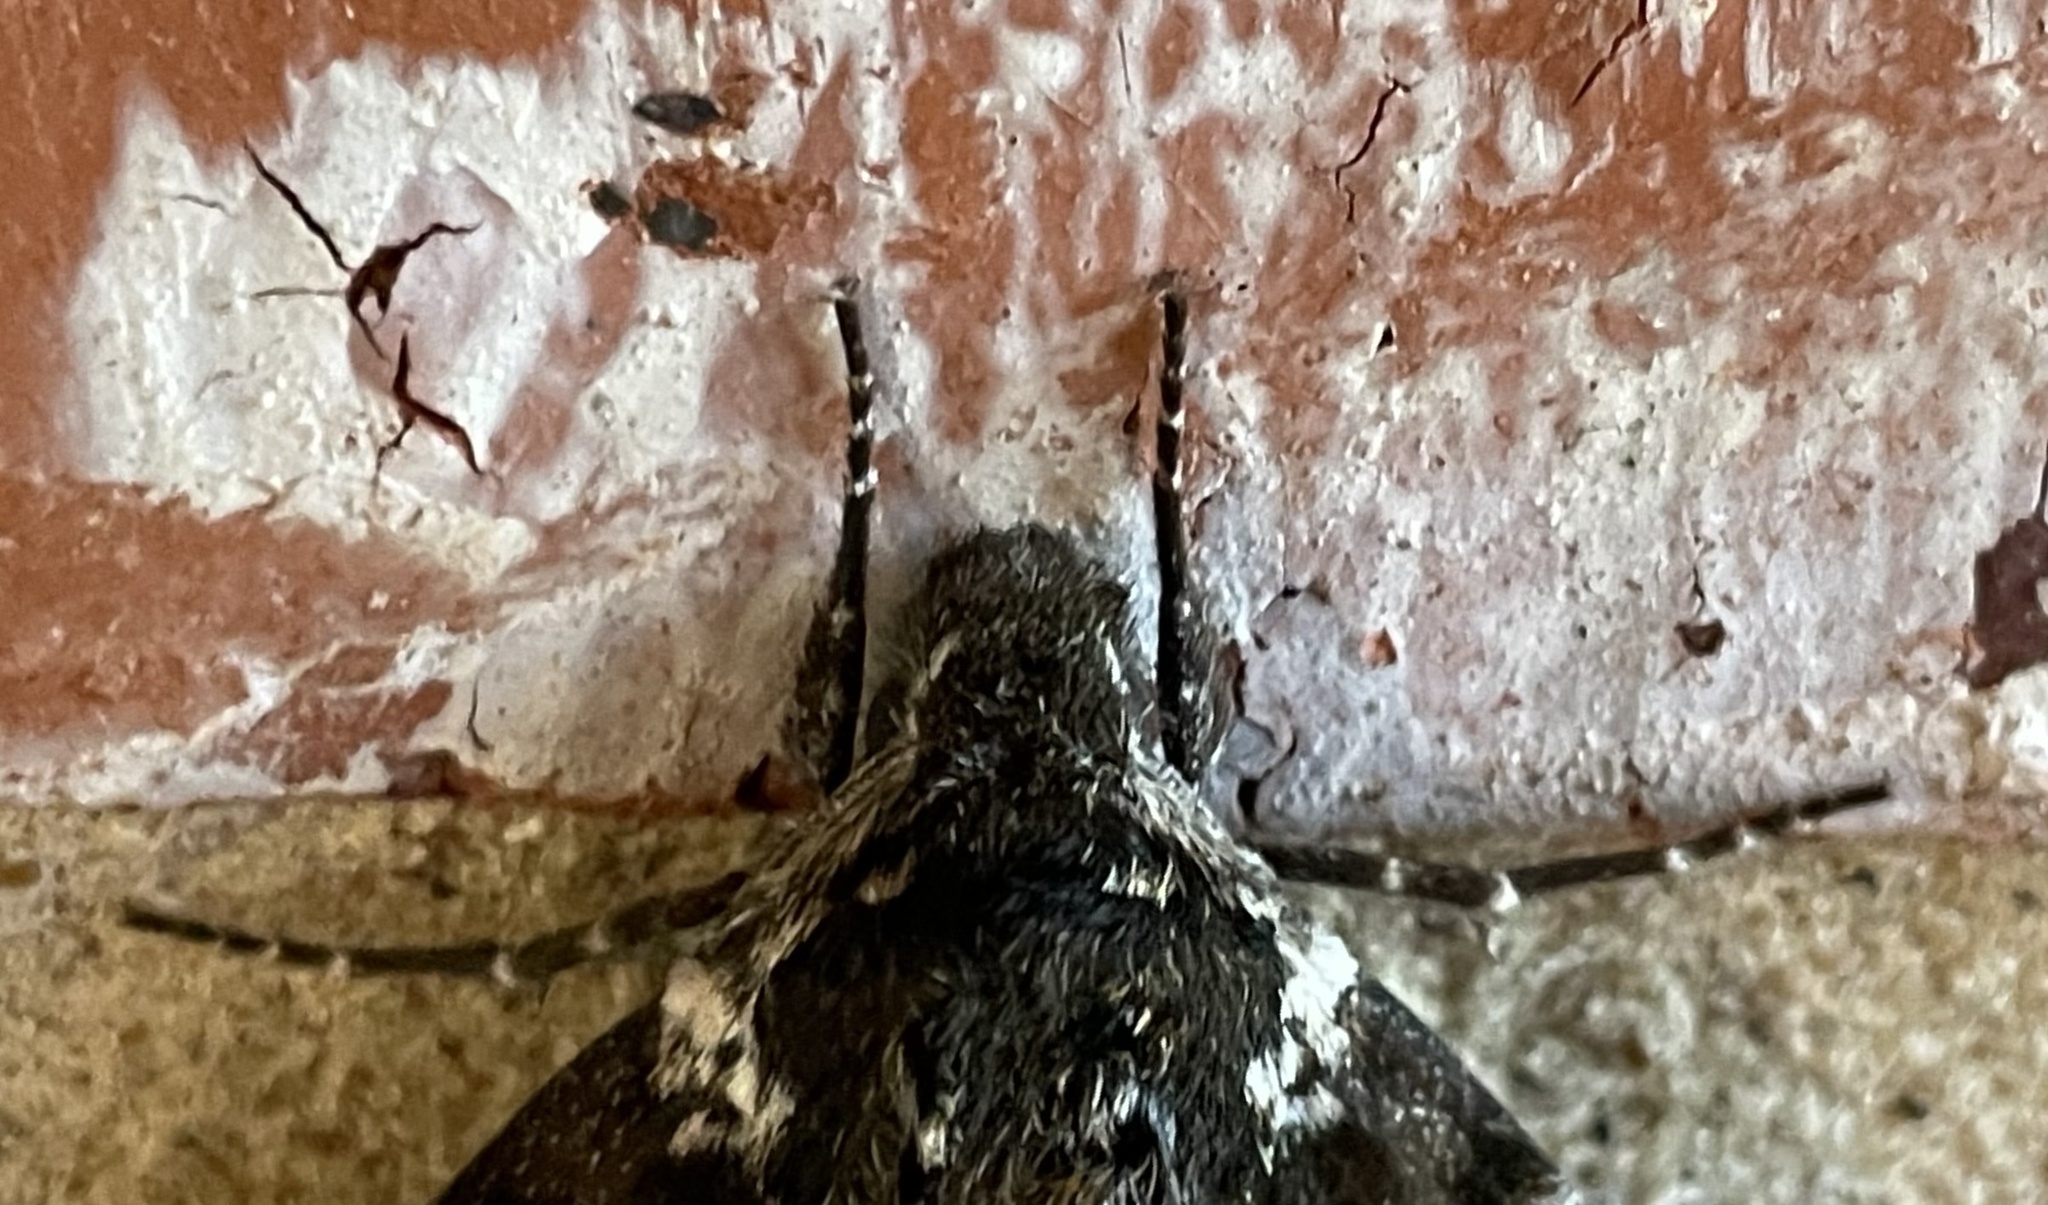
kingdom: Animalia
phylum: Arthropoda
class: Insecta
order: Lepidoptera
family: Sphingidae
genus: Dolba
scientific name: Dolba hyloeus
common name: Pawpaw sphinx
